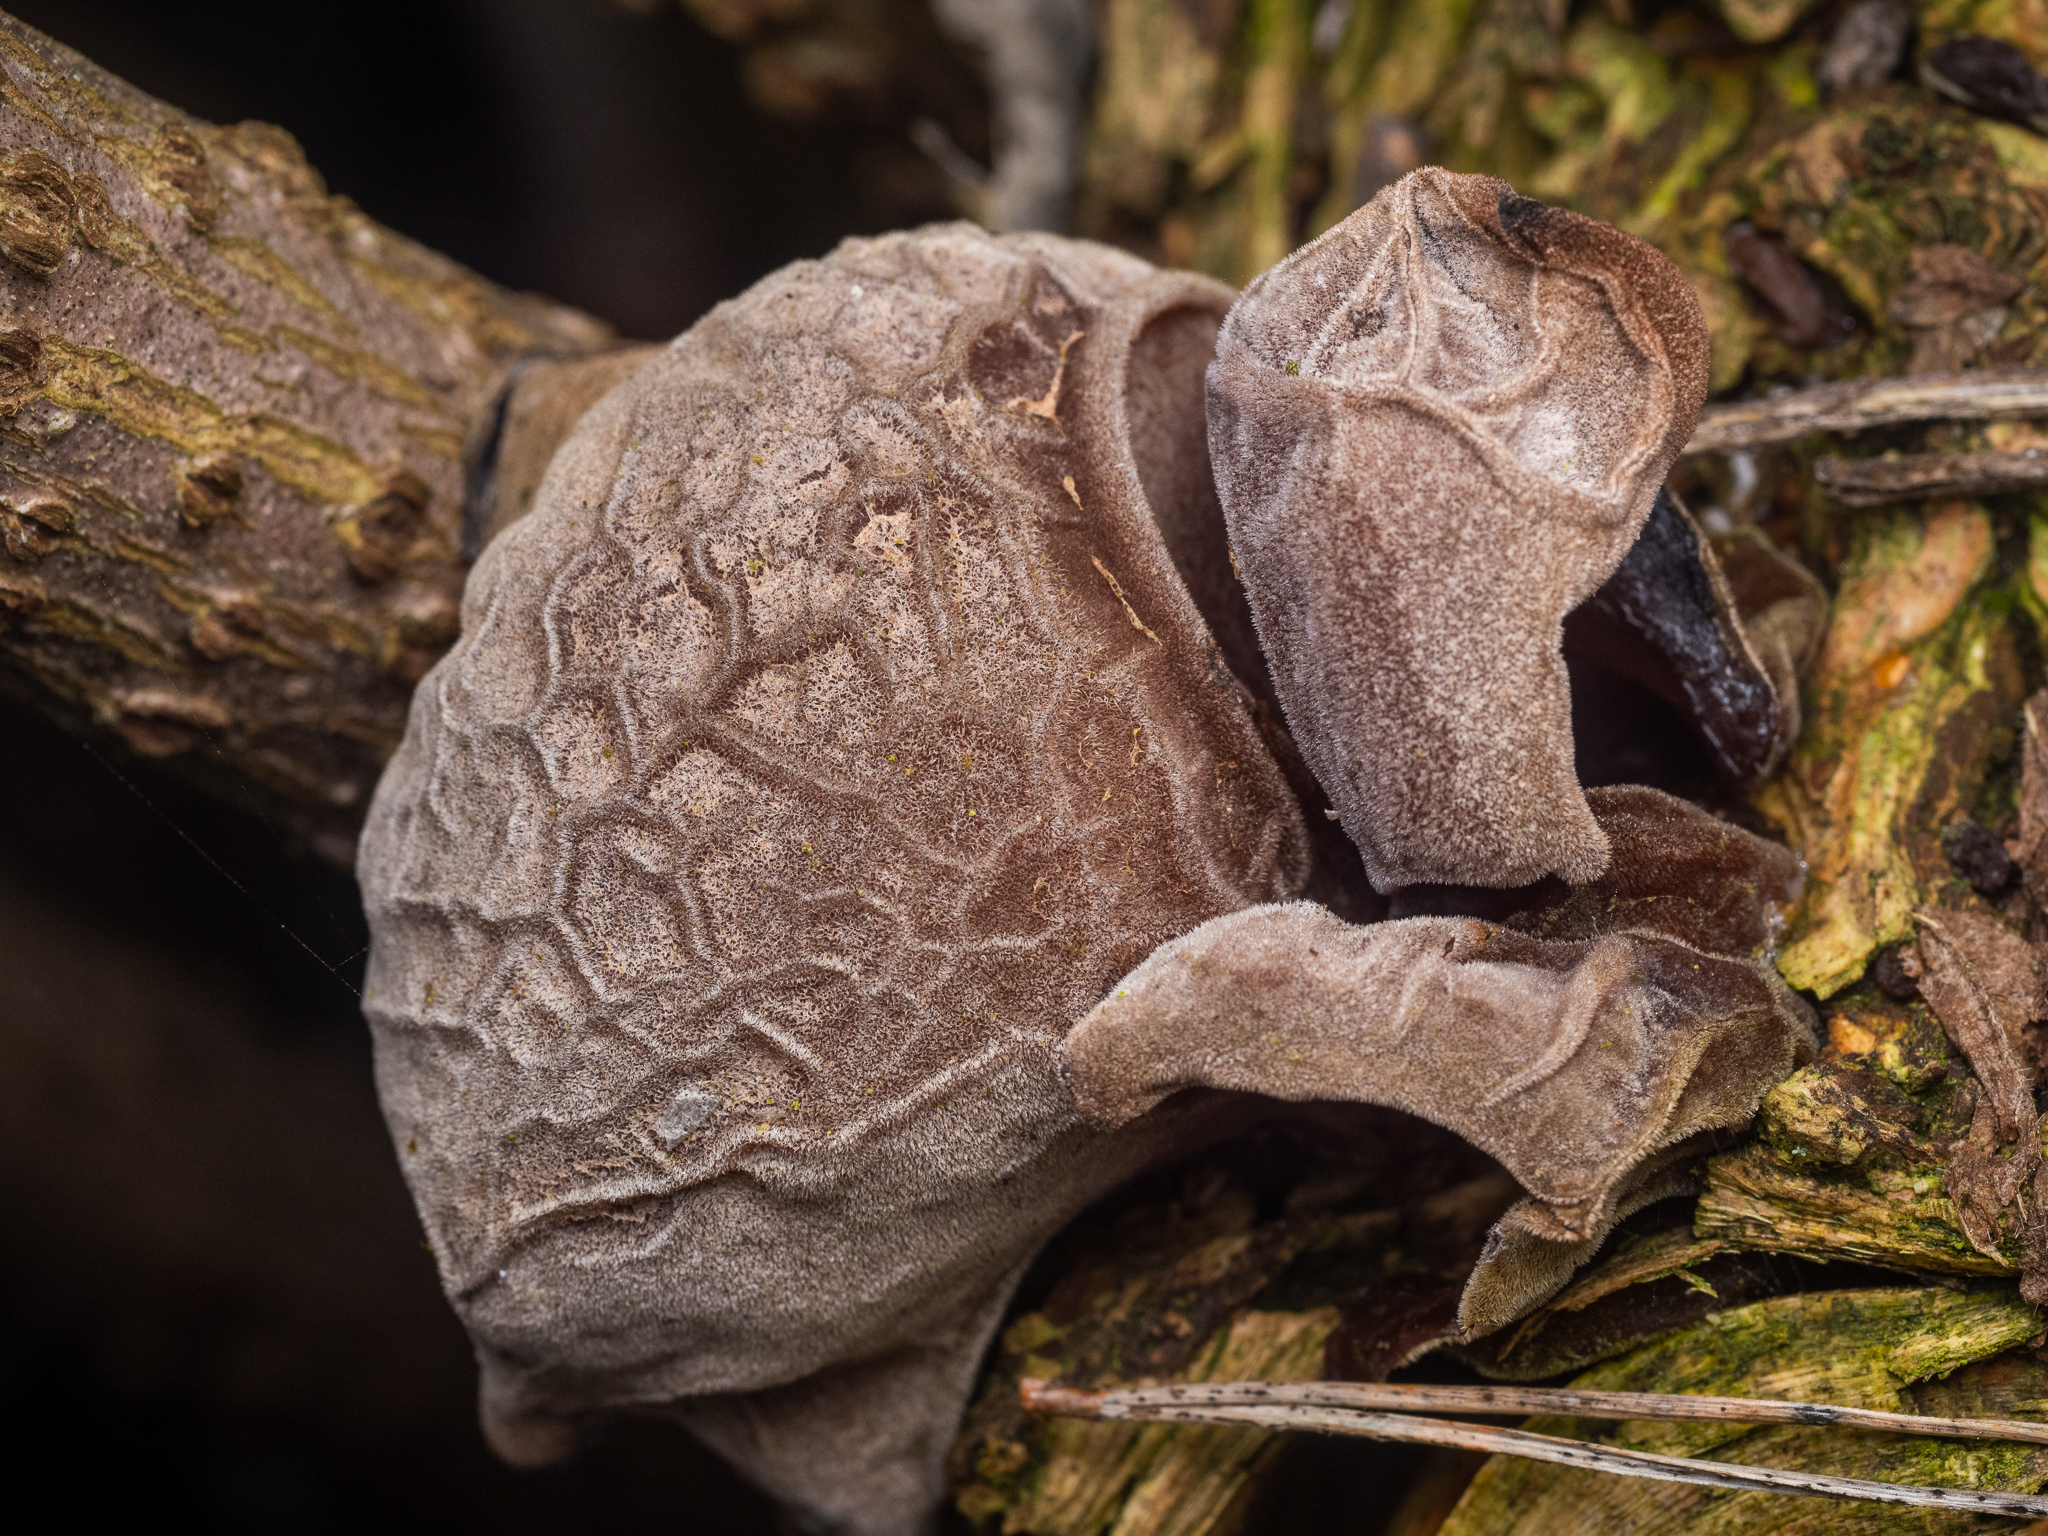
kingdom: Fungi
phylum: Basidiomycota
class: Agaricomycetes
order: Auriculariales
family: Auriculariaceae
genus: Auricularia
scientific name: Auricularia auricula-judae
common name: Jelly ear
